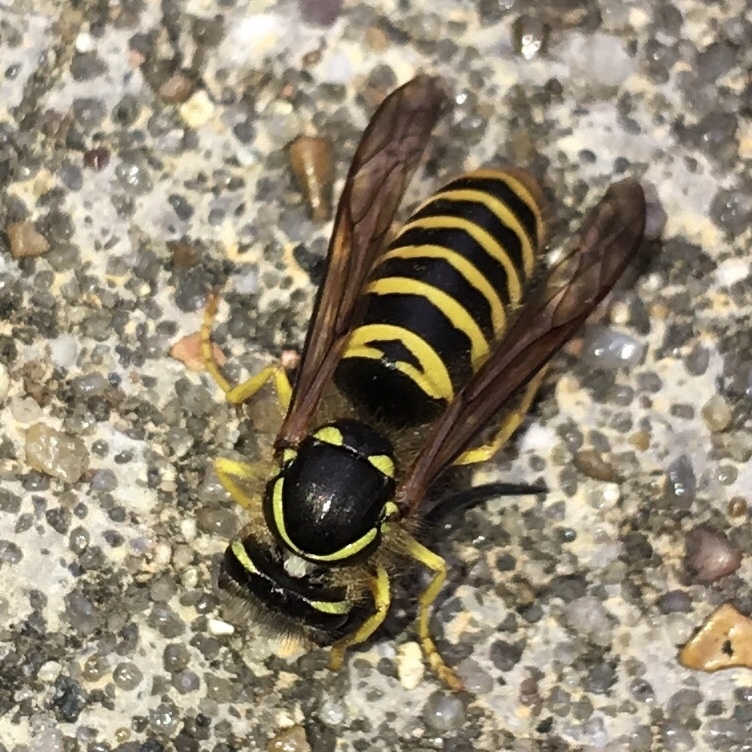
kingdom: Animalia
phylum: Arthropoda
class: Insecta
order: Hymenoptera
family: Vespidae
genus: Vespula
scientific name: Vespula maculifrons
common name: Eastern yellowjacket
